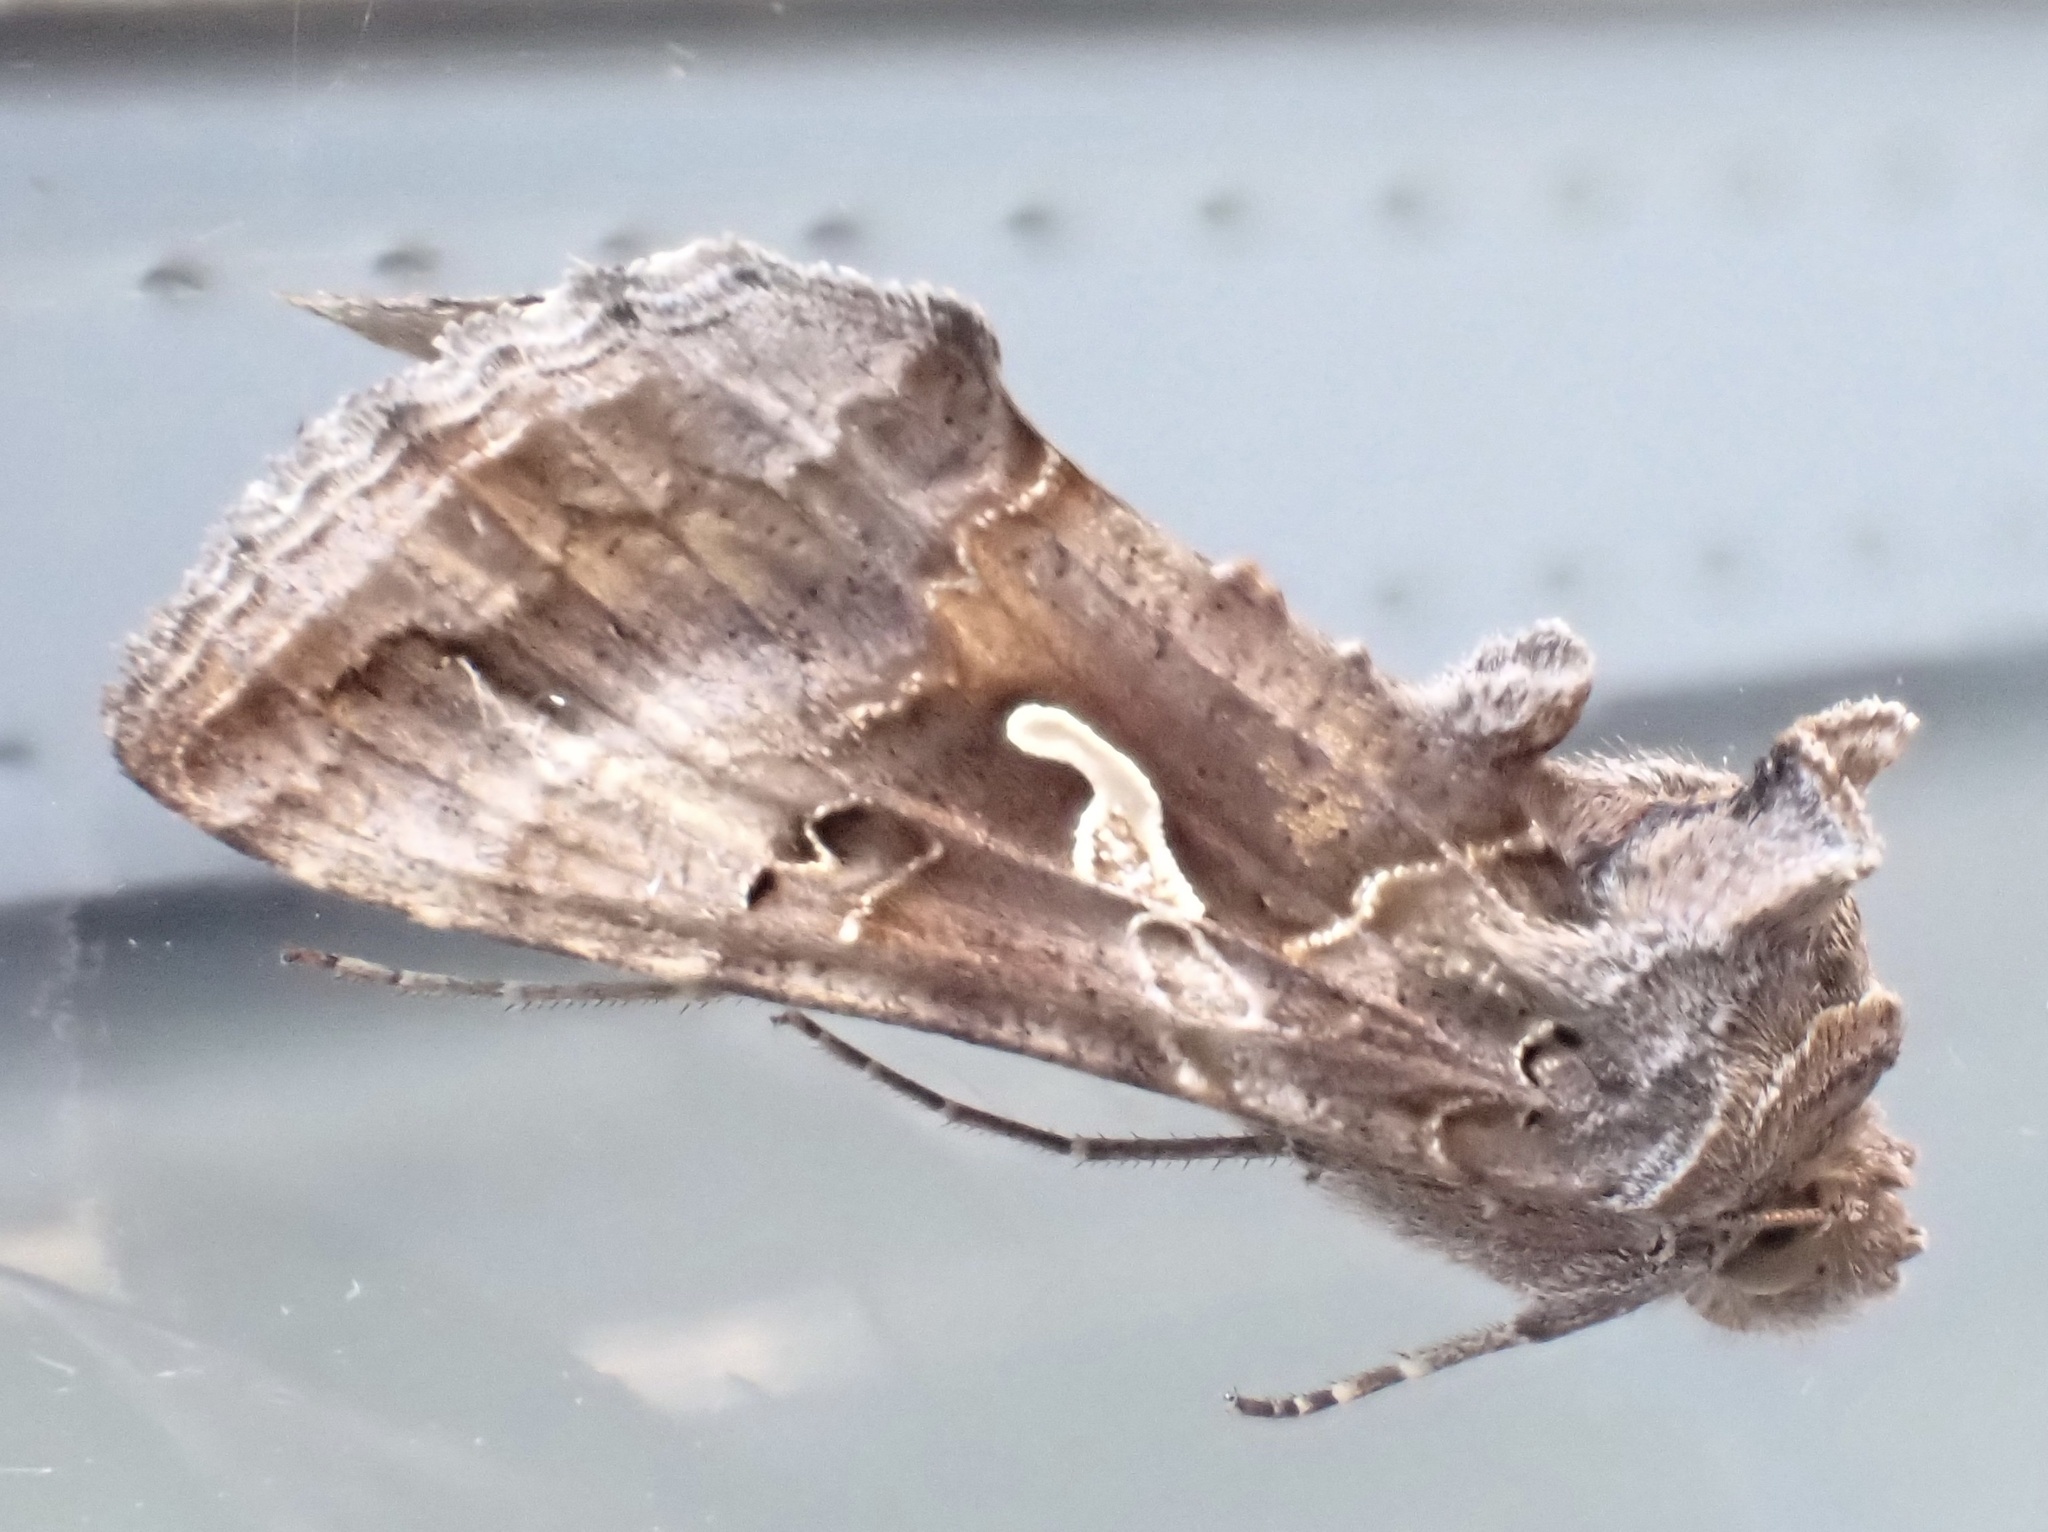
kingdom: Animalia
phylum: Arthropoda
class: Insecta
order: Lepidoptera
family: Noctuidae
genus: Autographa
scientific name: Autographa gamma
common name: Silver y
